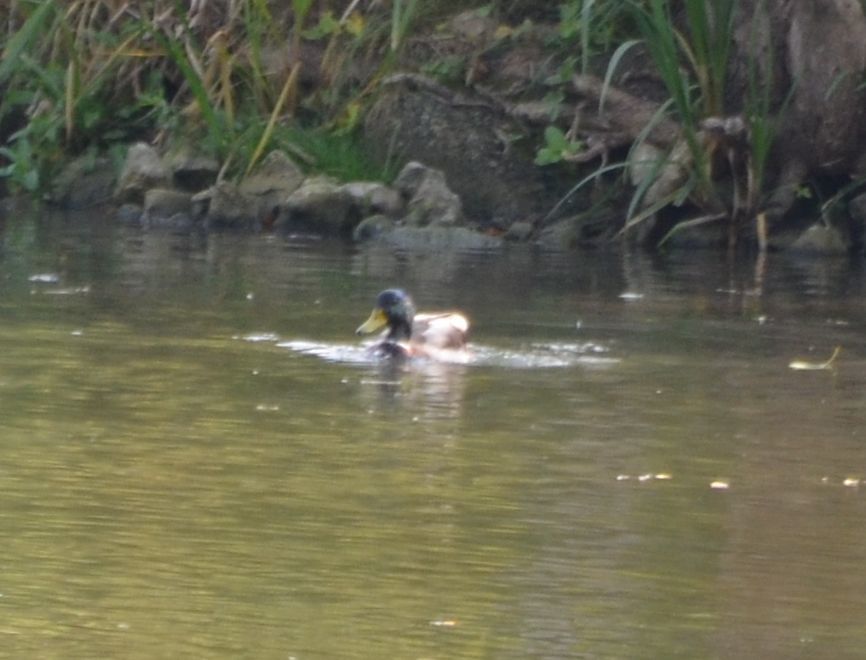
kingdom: Animalia
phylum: Chordata
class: Aves
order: Anseriformes
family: Anatidae
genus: Anas
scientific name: Anas platyrhynchos
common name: Mallard
